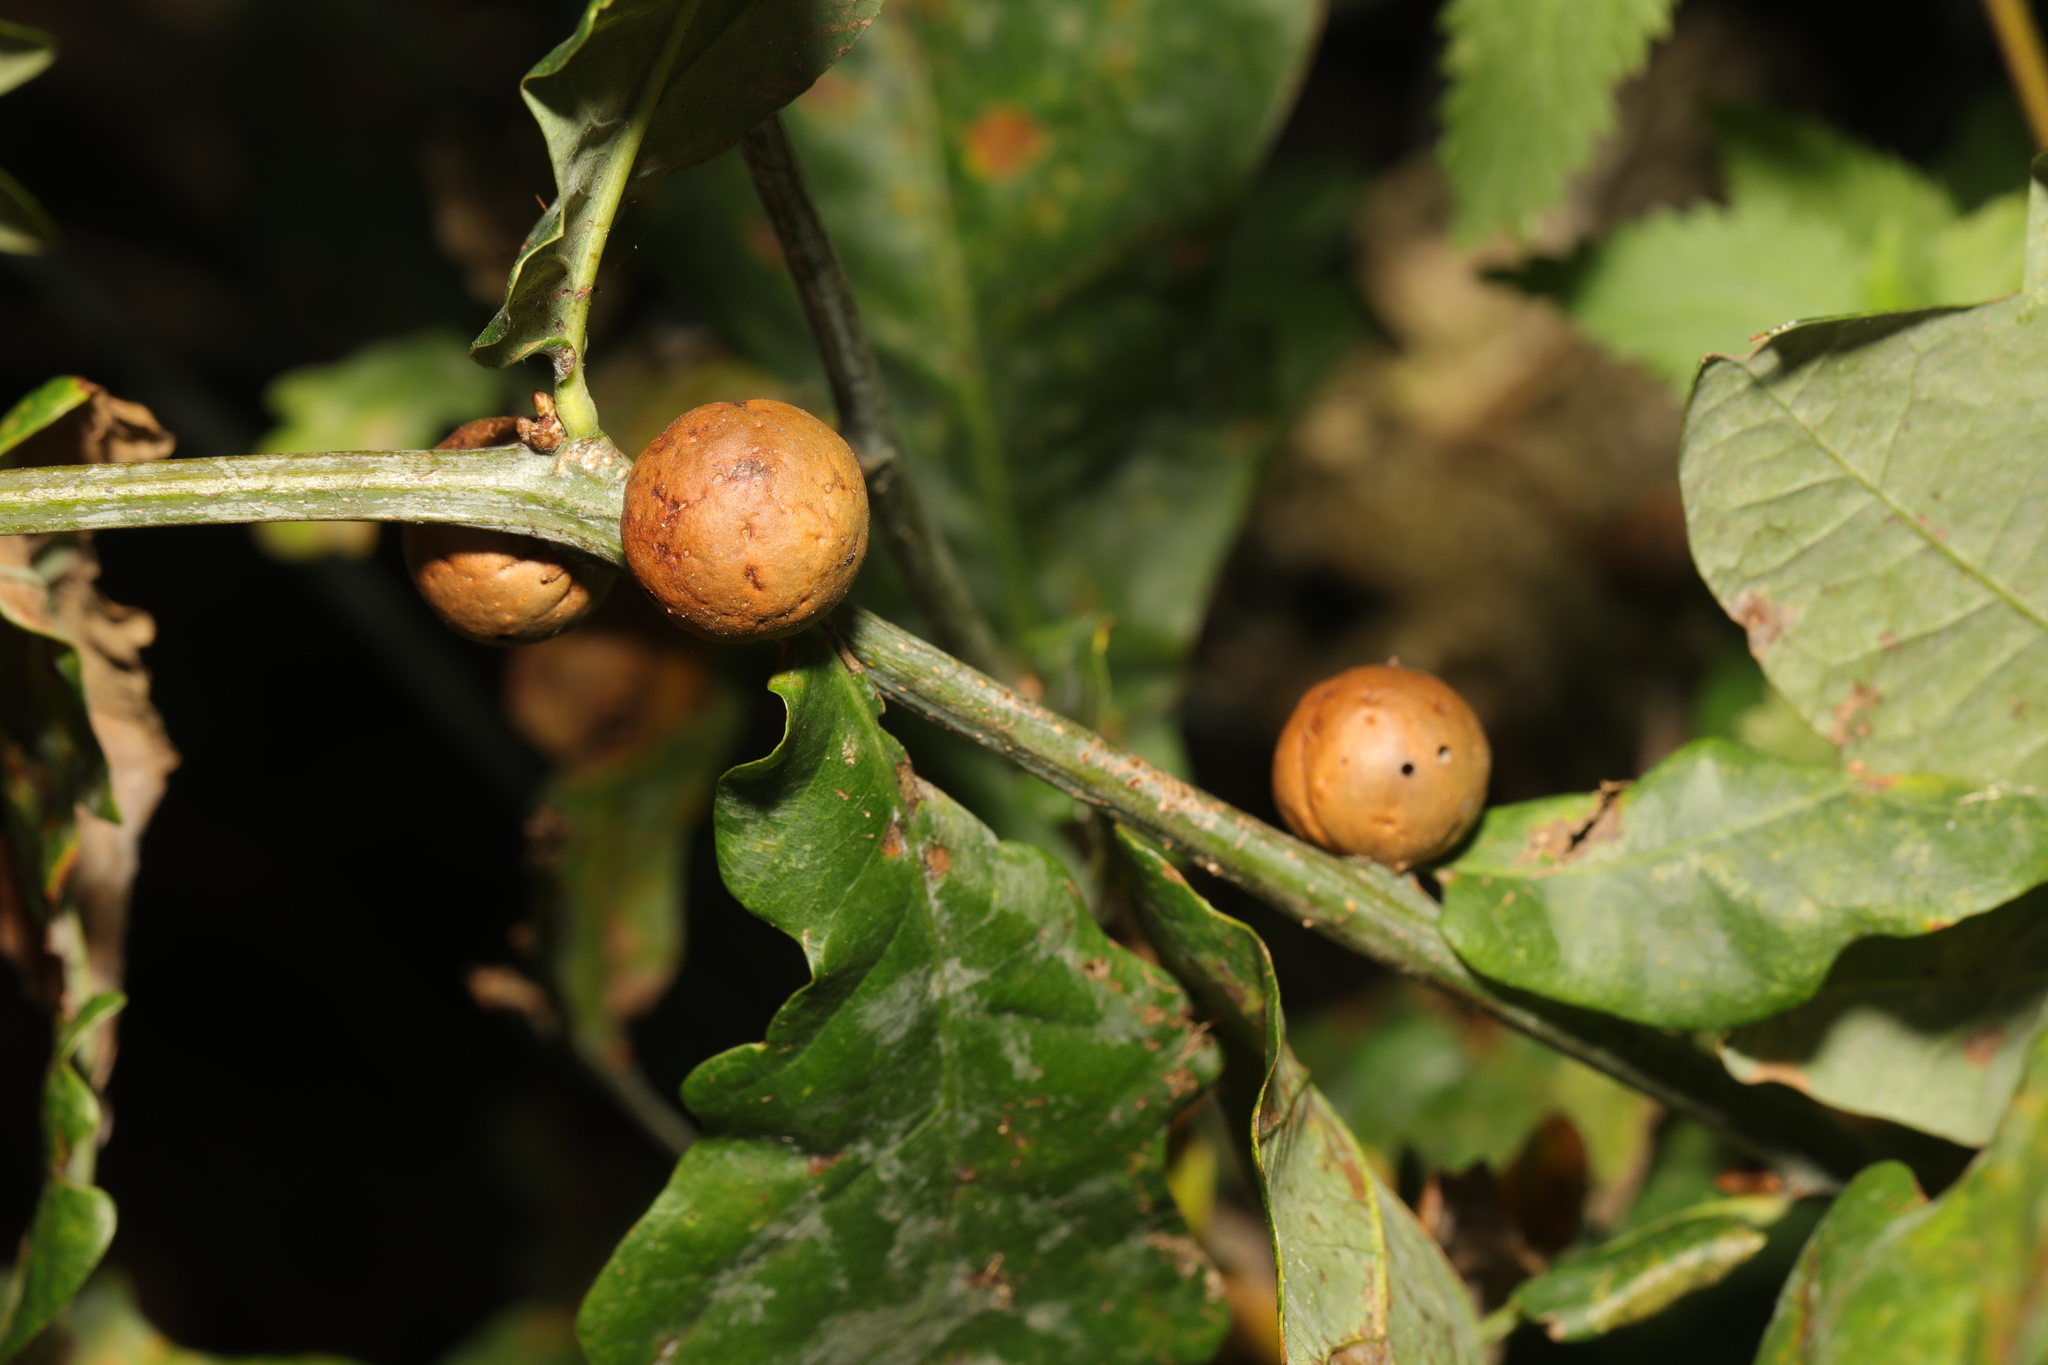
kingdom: Animalia
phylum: Arthropoda
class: Insecta
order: Hymenoptera
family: Cynipidae
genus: Andricus
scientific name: Andricus kollari
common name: Marble gall
